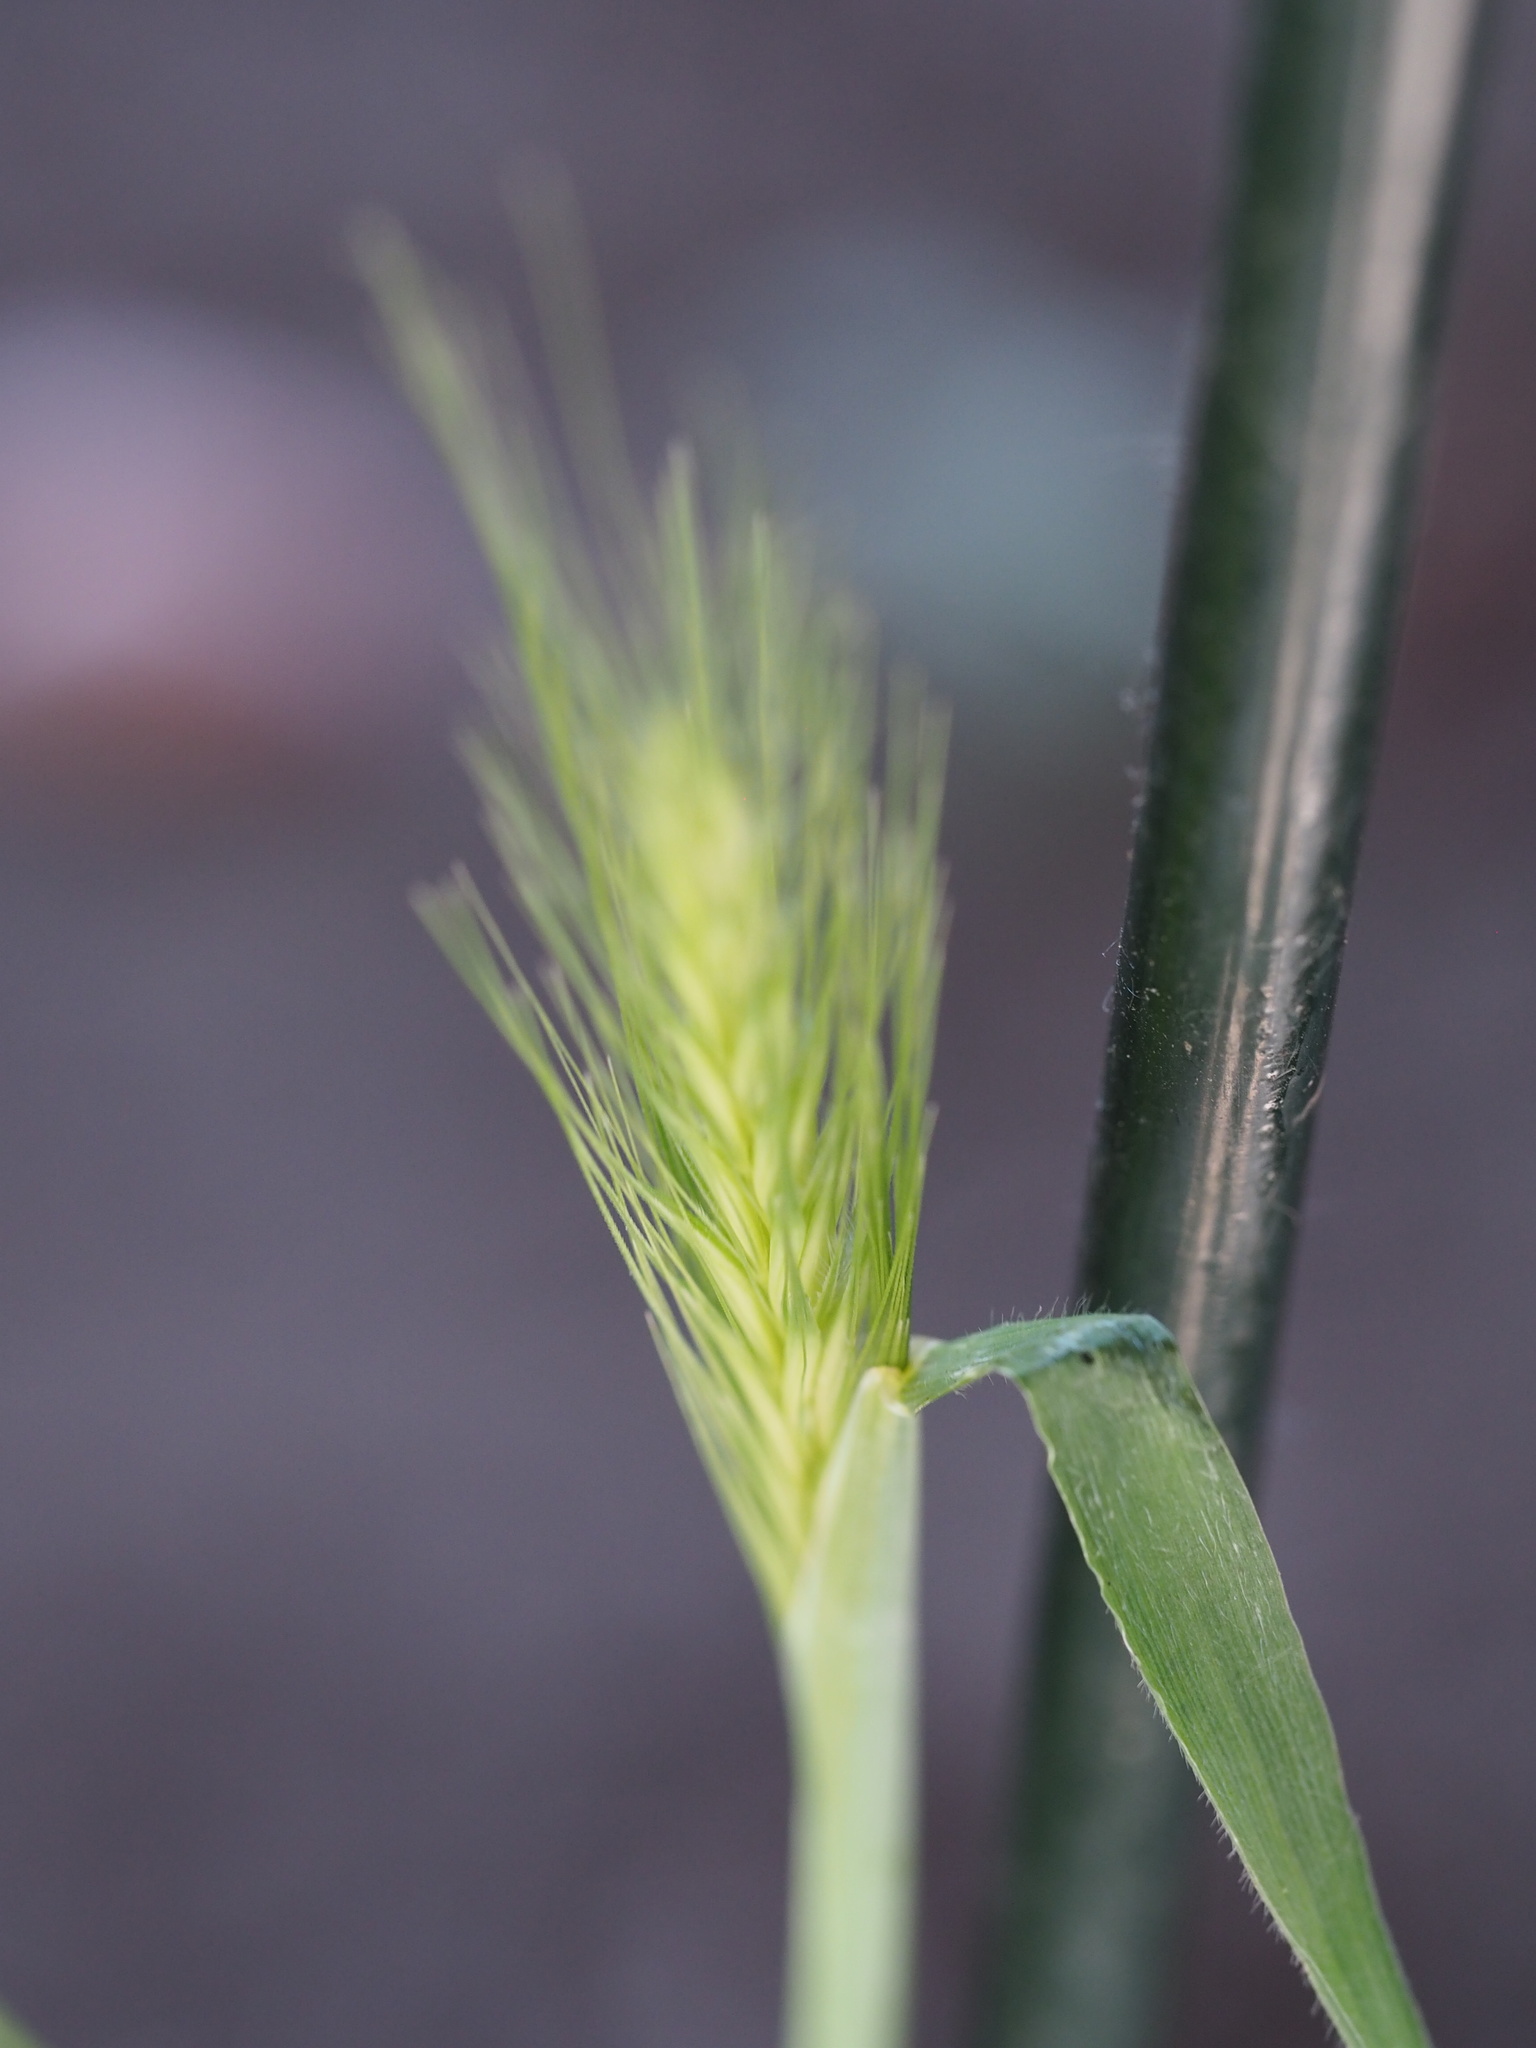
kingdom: Plantae
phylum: Tracheophyta
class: Liliopsida
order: Poales
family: Poaceae
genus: Hordeum
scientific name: Hordeum murinum
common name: Wall barley
